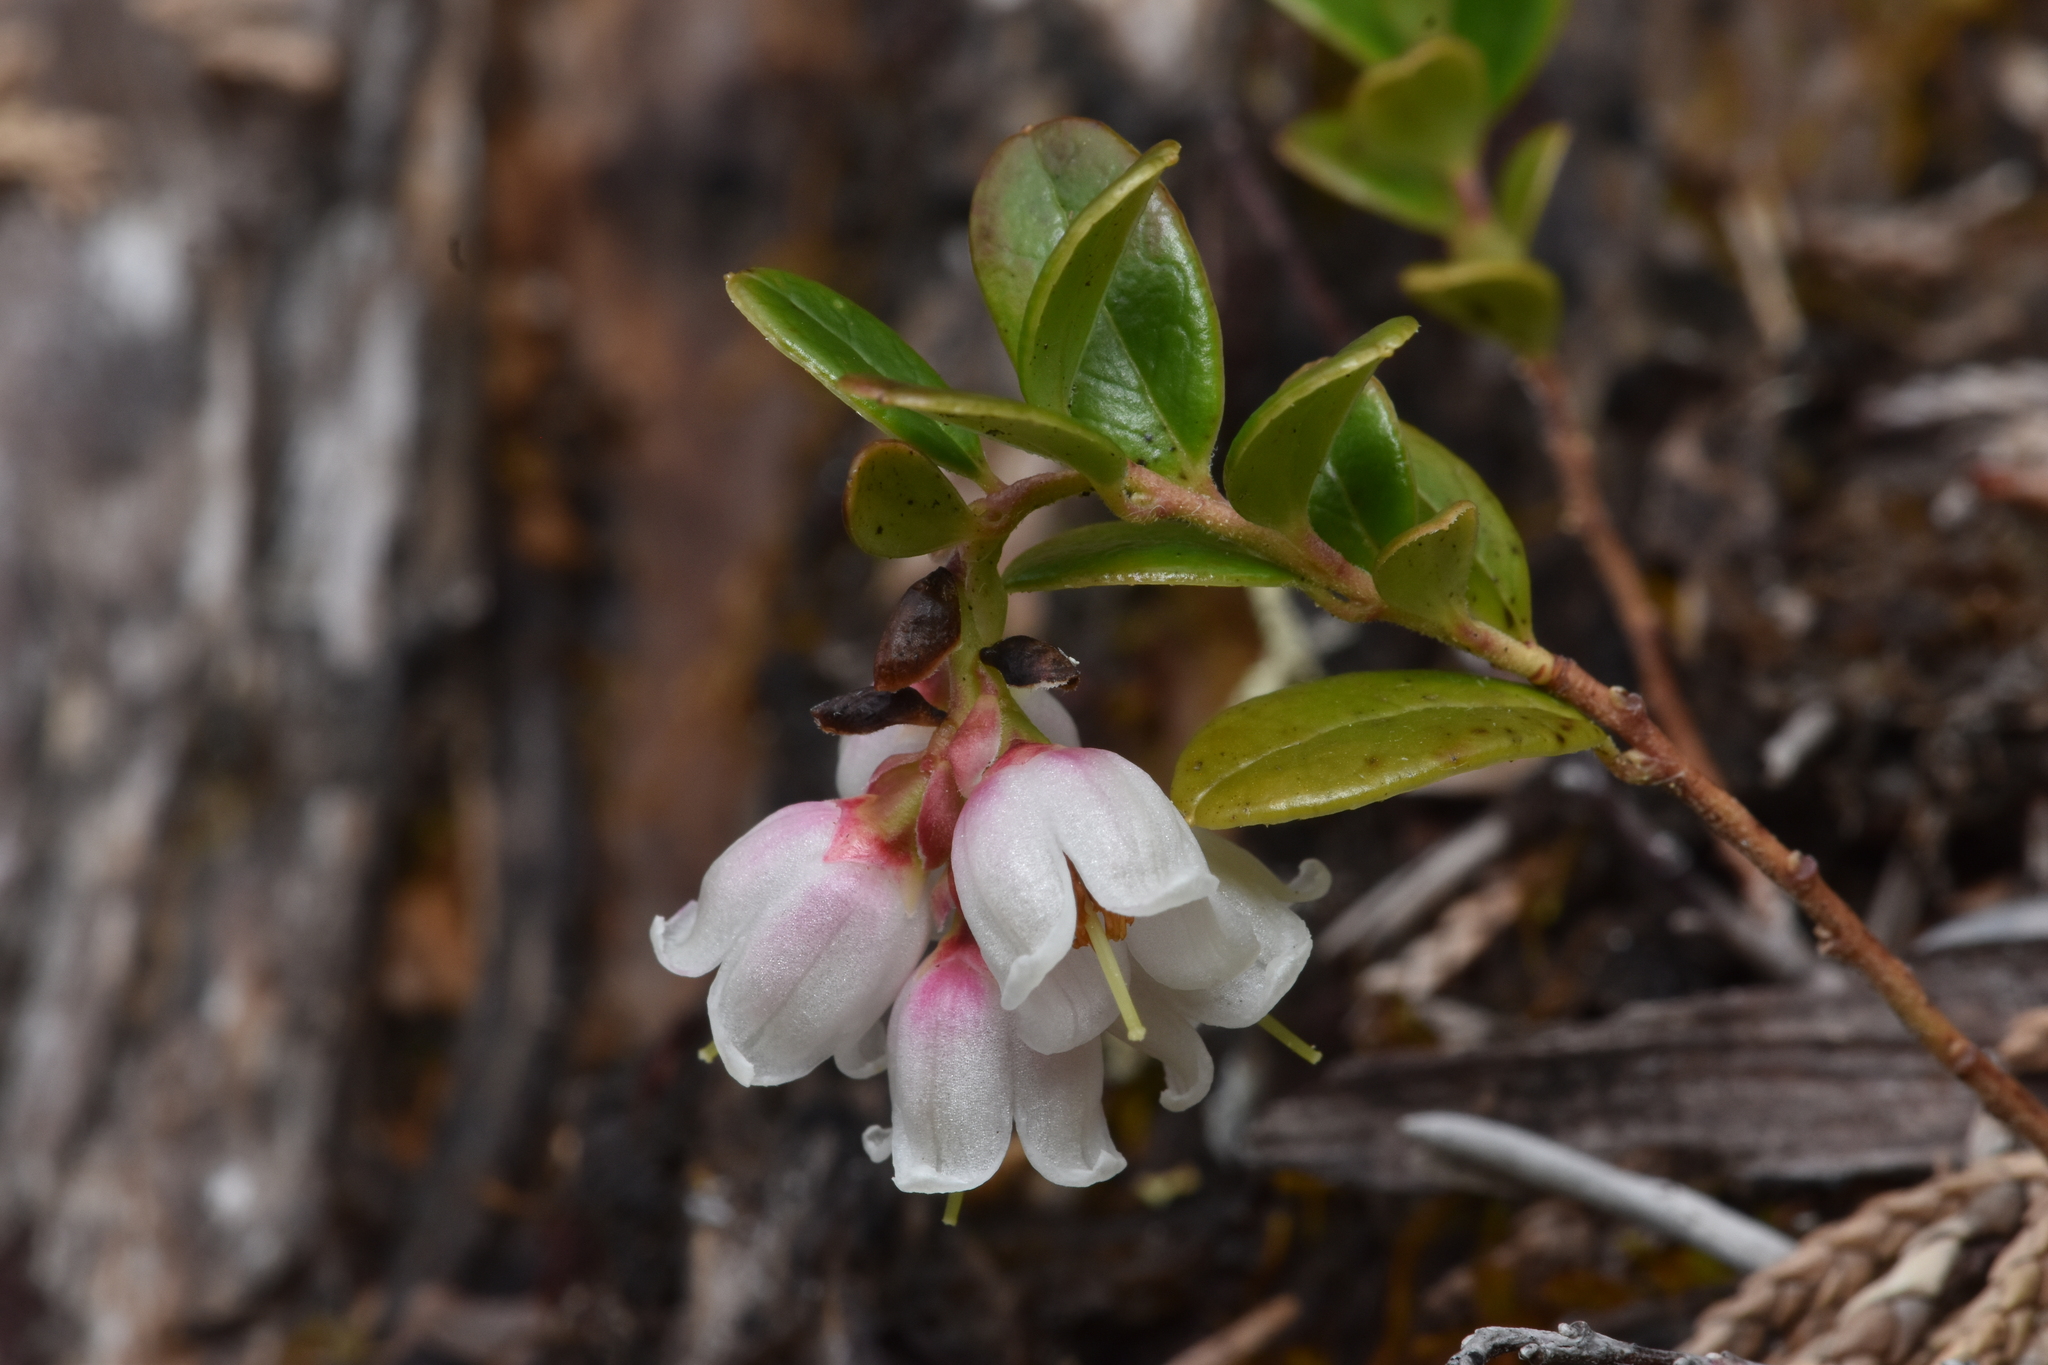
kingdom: Plantae
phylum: Tracheophyta
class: Magnoliopsida
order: Ericales
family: Ericaceae
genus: Vaccinium
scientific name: Vaccinium vitis-idaea
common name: Cowberry
